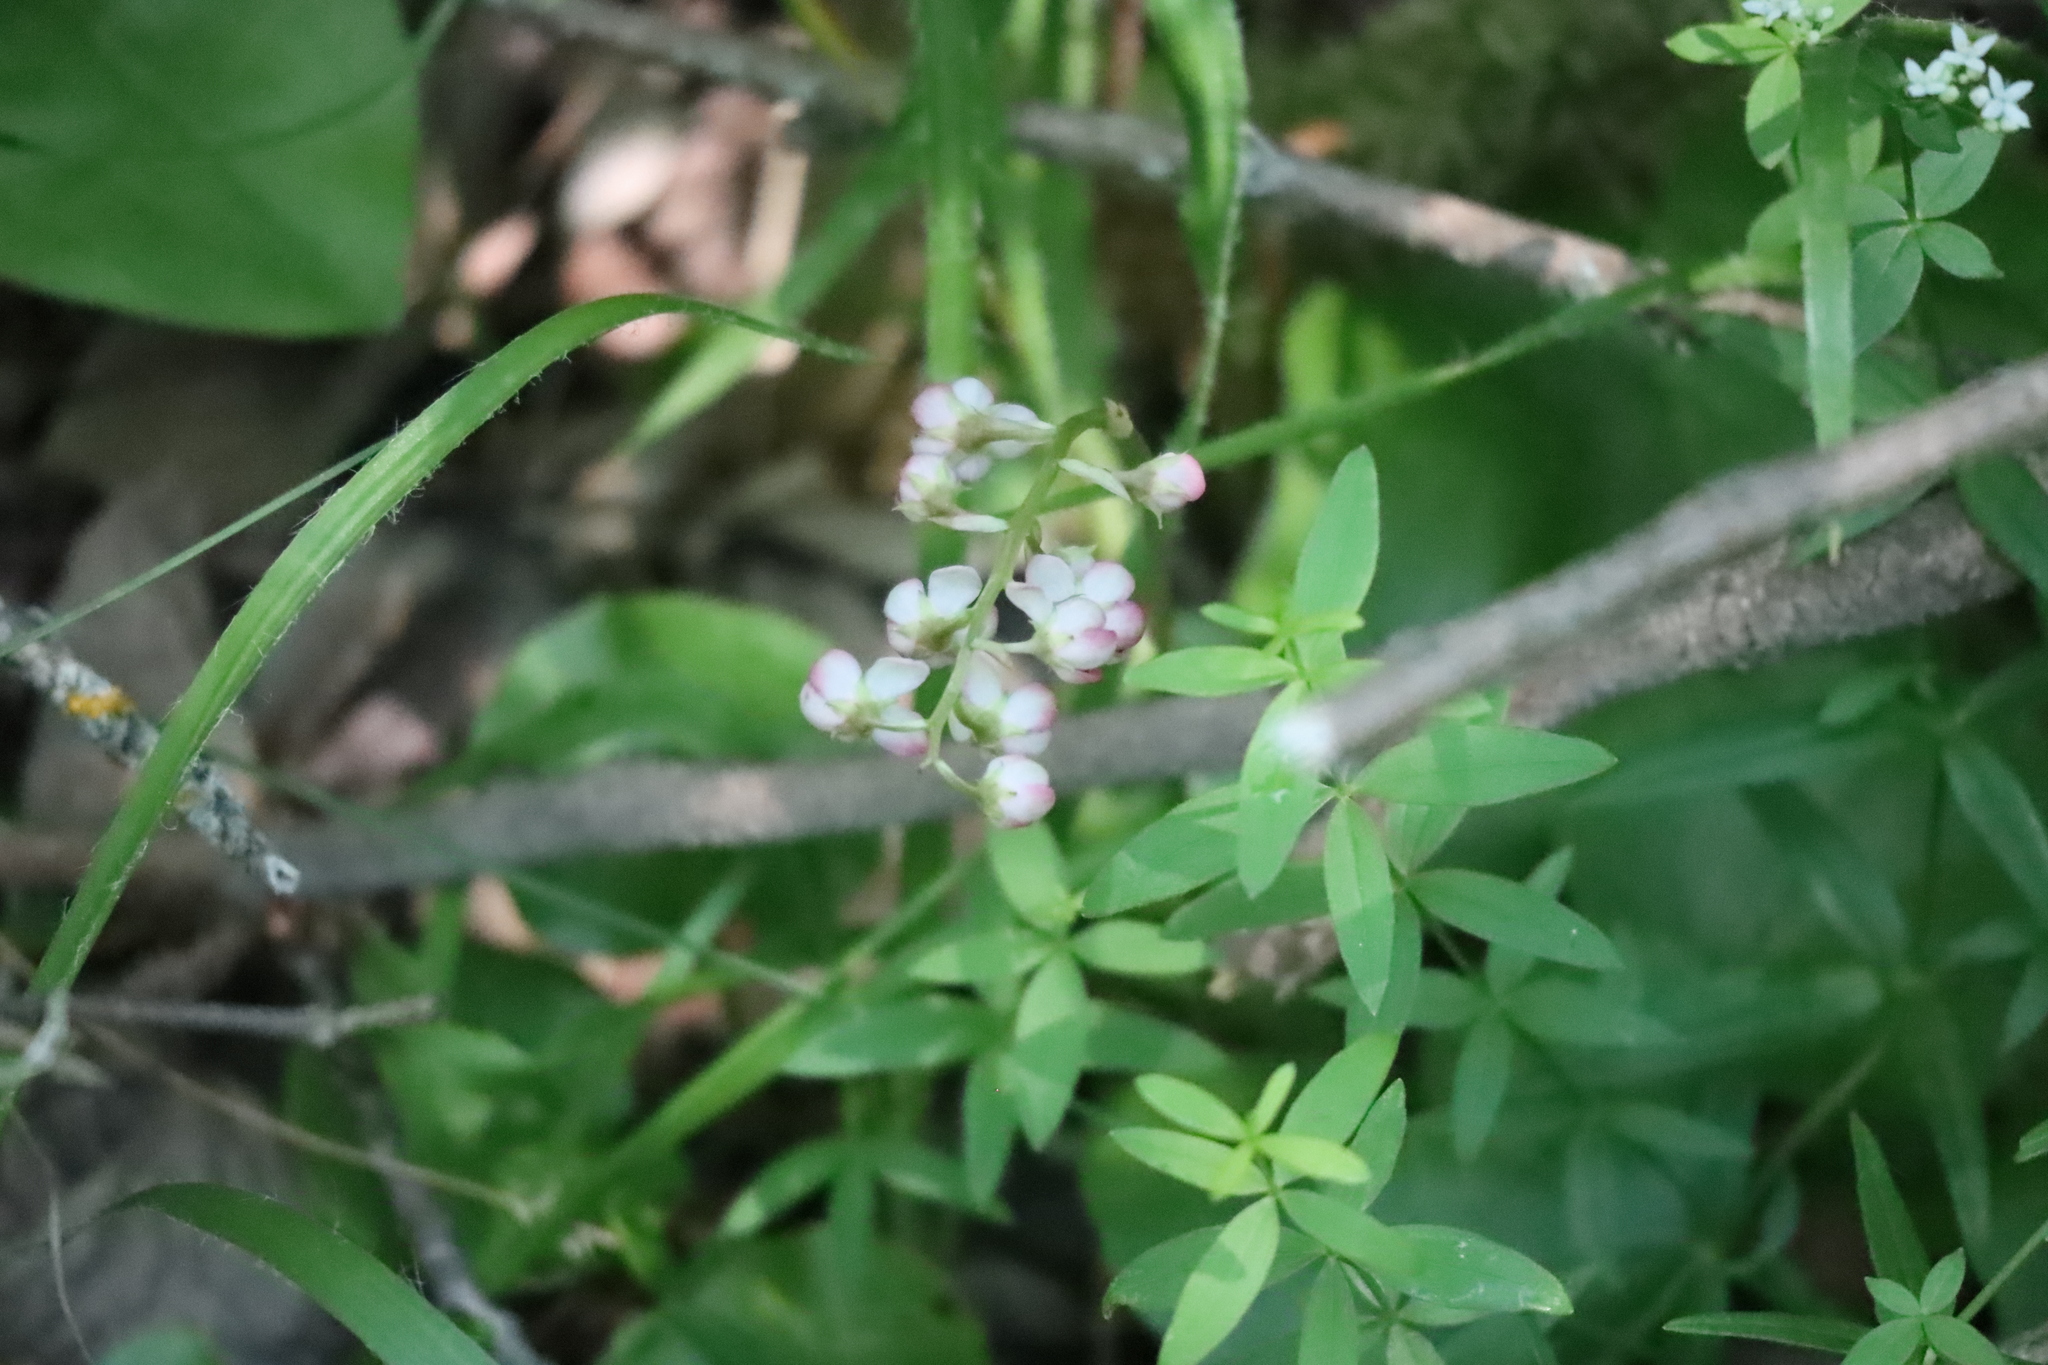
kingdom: Plantae
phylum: Tracheophyta
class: Magnoliopsida
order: Ericales
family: Ericaceae
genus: Pyrola
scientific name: Pyrola asarifolia
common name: Bog wintergreen
